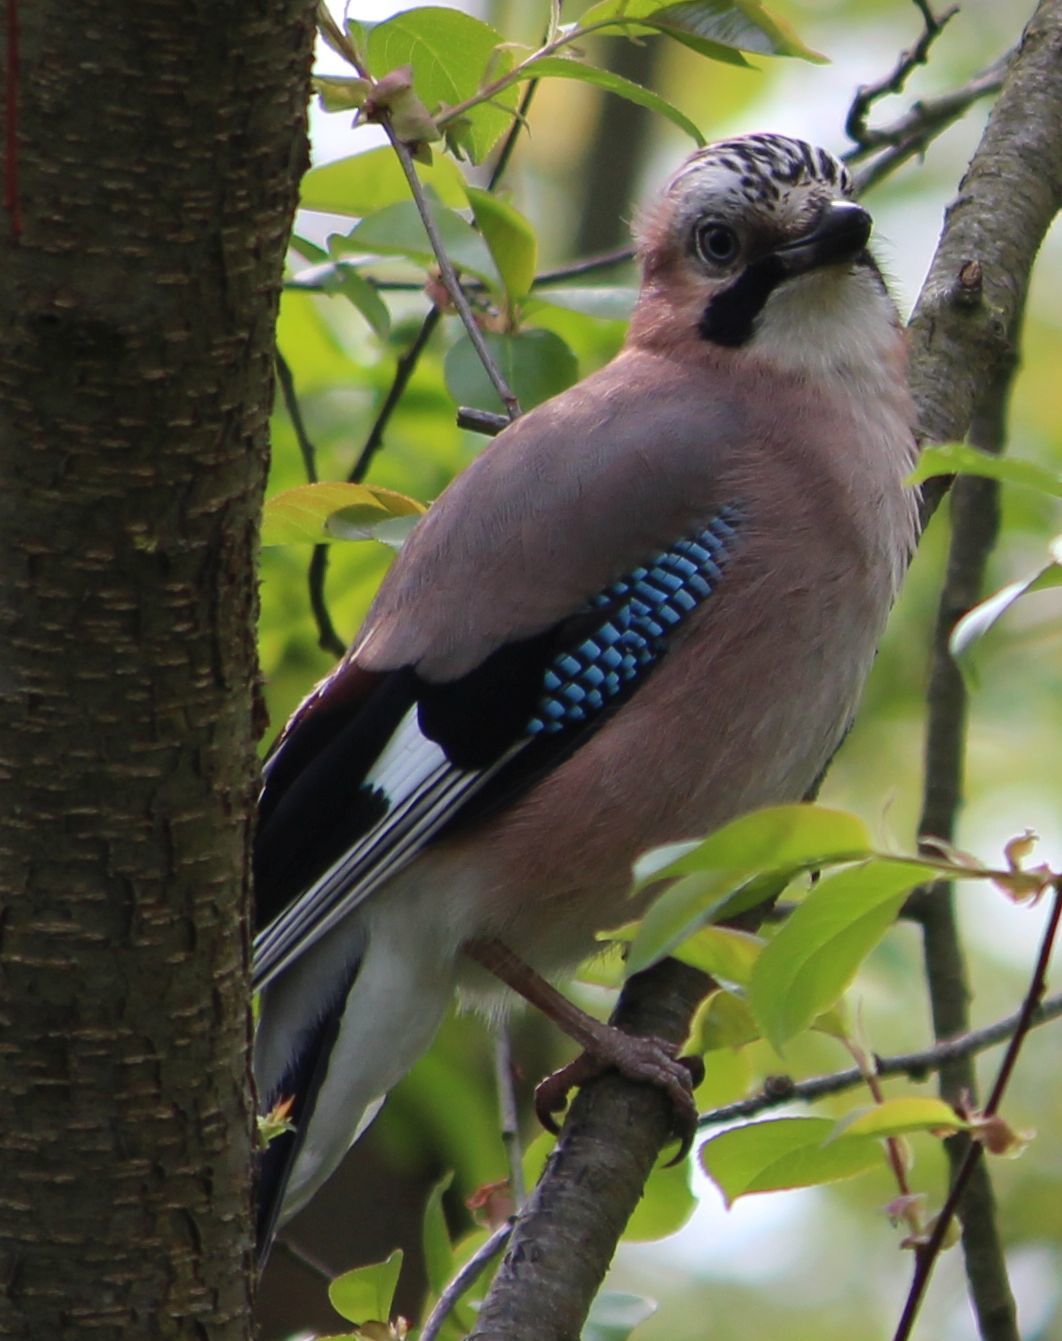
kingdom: Animalia
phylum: Chordata
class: Aves
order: Passeriformes
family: Corvidae
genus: Garrulus
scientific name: Garrulus glandarius
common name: Eurasian jay
